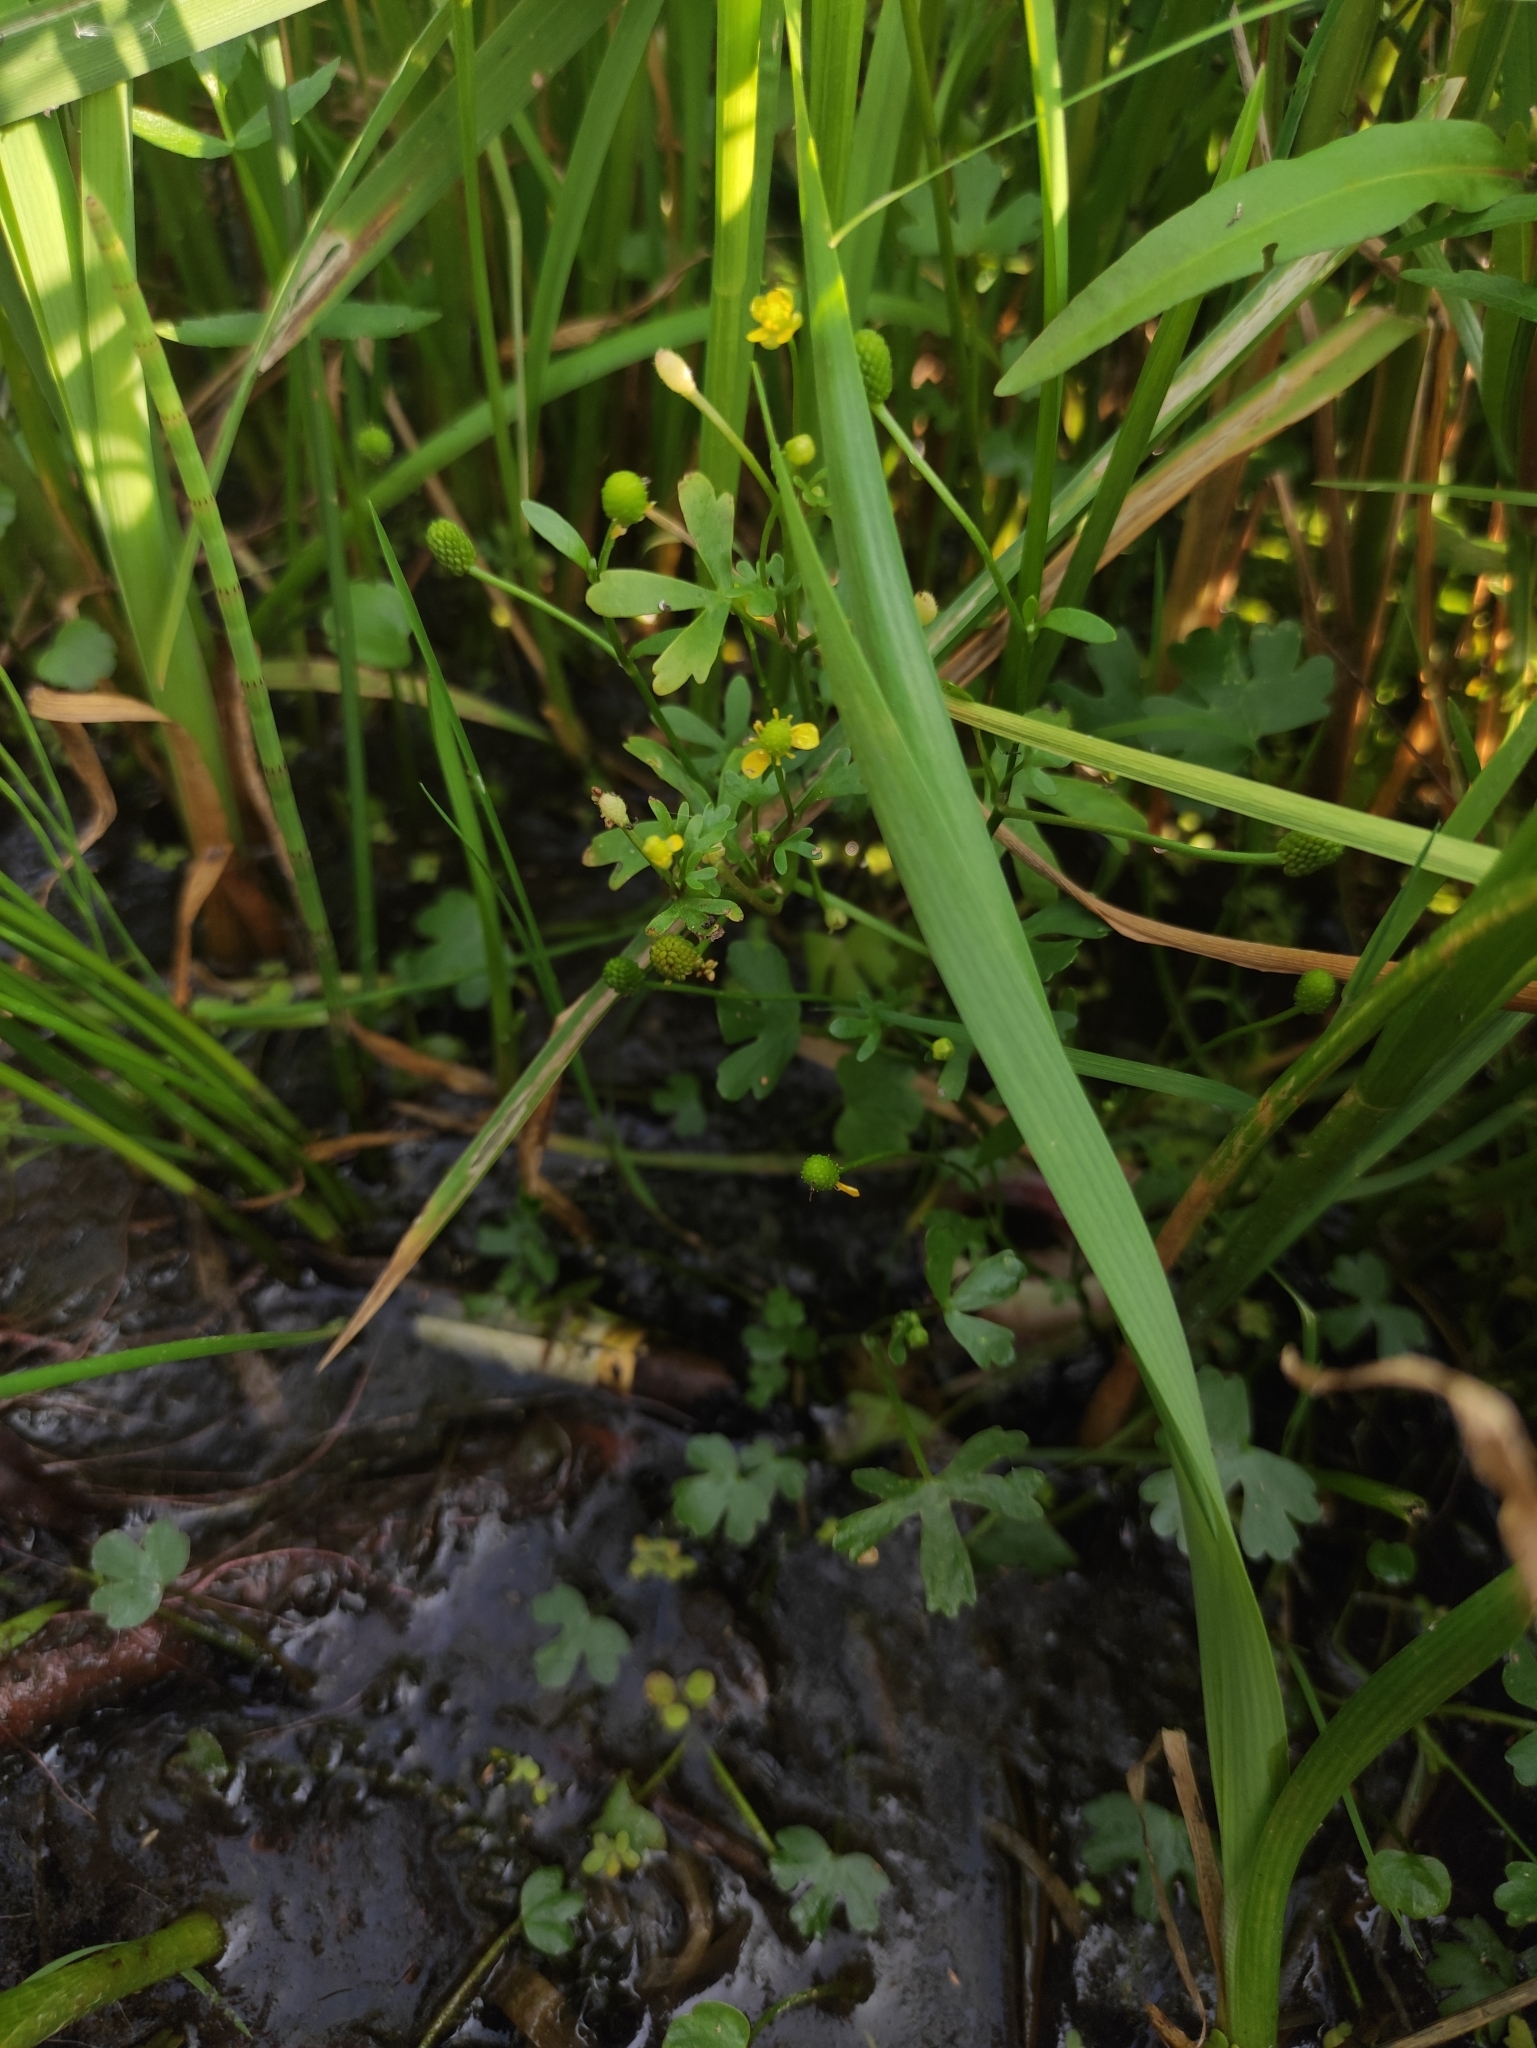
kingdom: Plantae
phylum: Tracheophyta
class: Magnoliopsida
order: Ranunculales
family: Ranunculaceae
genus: Ranunculus
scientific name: Ranunculus sceleratus
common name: Celery-leaved buttercup
